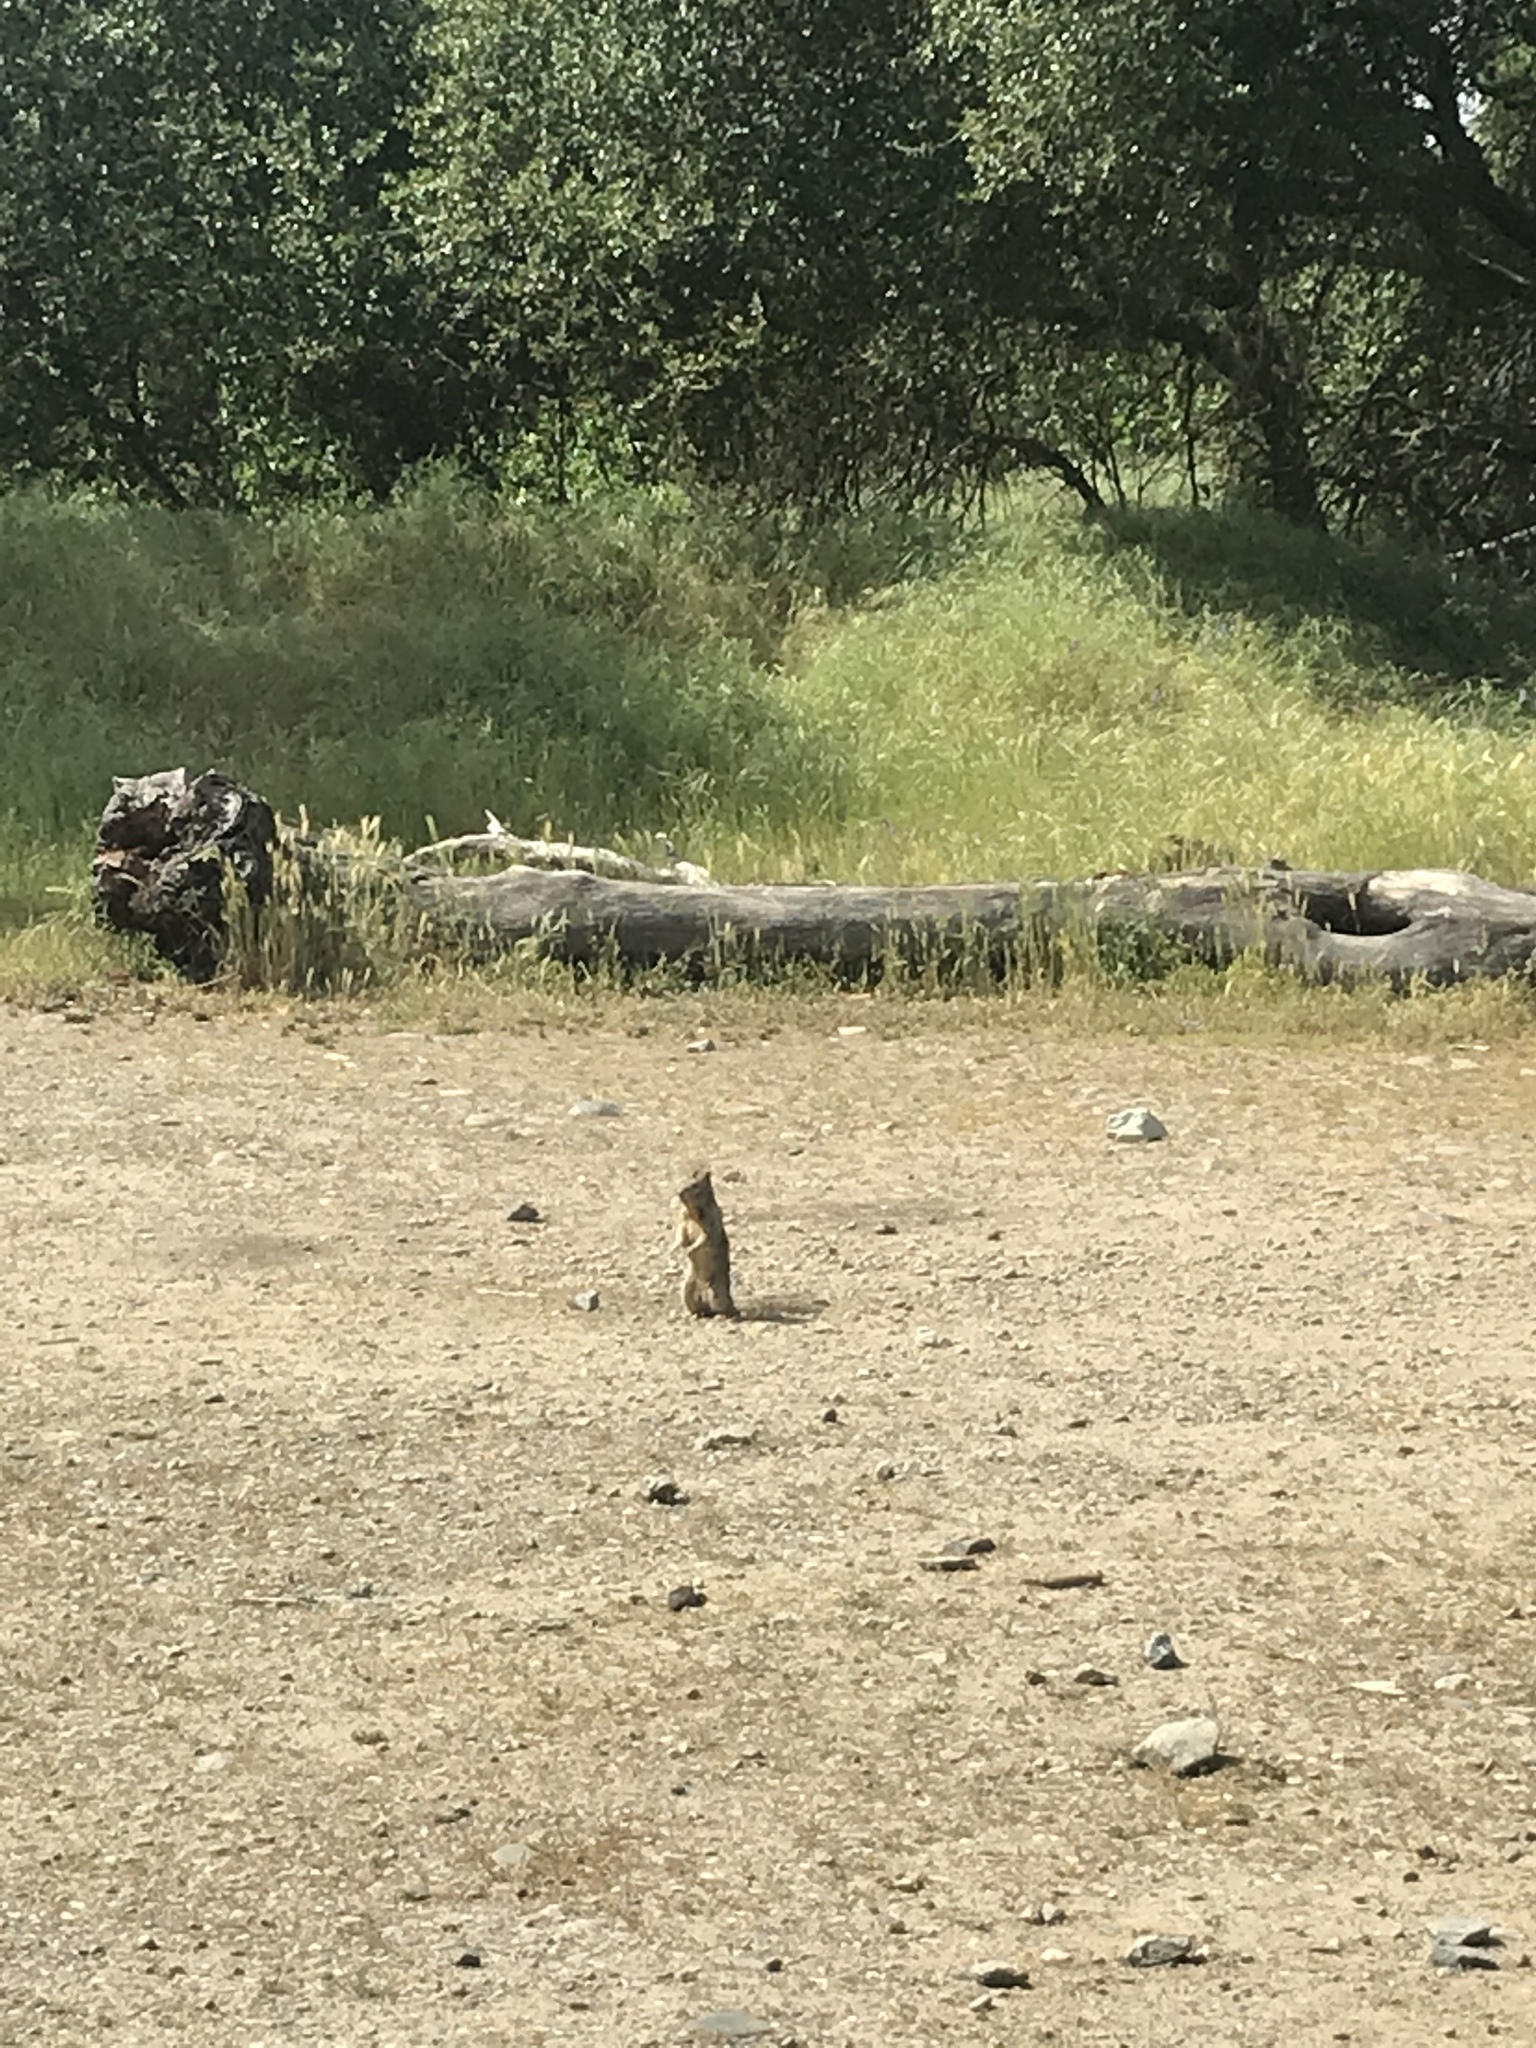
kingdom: Animalia
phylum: Chordata
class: Mammalia
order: Rodentia
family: Sciuridae
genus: Otospermophilus
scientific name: Otospermophilus beecheyi
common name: California ground squirrel
